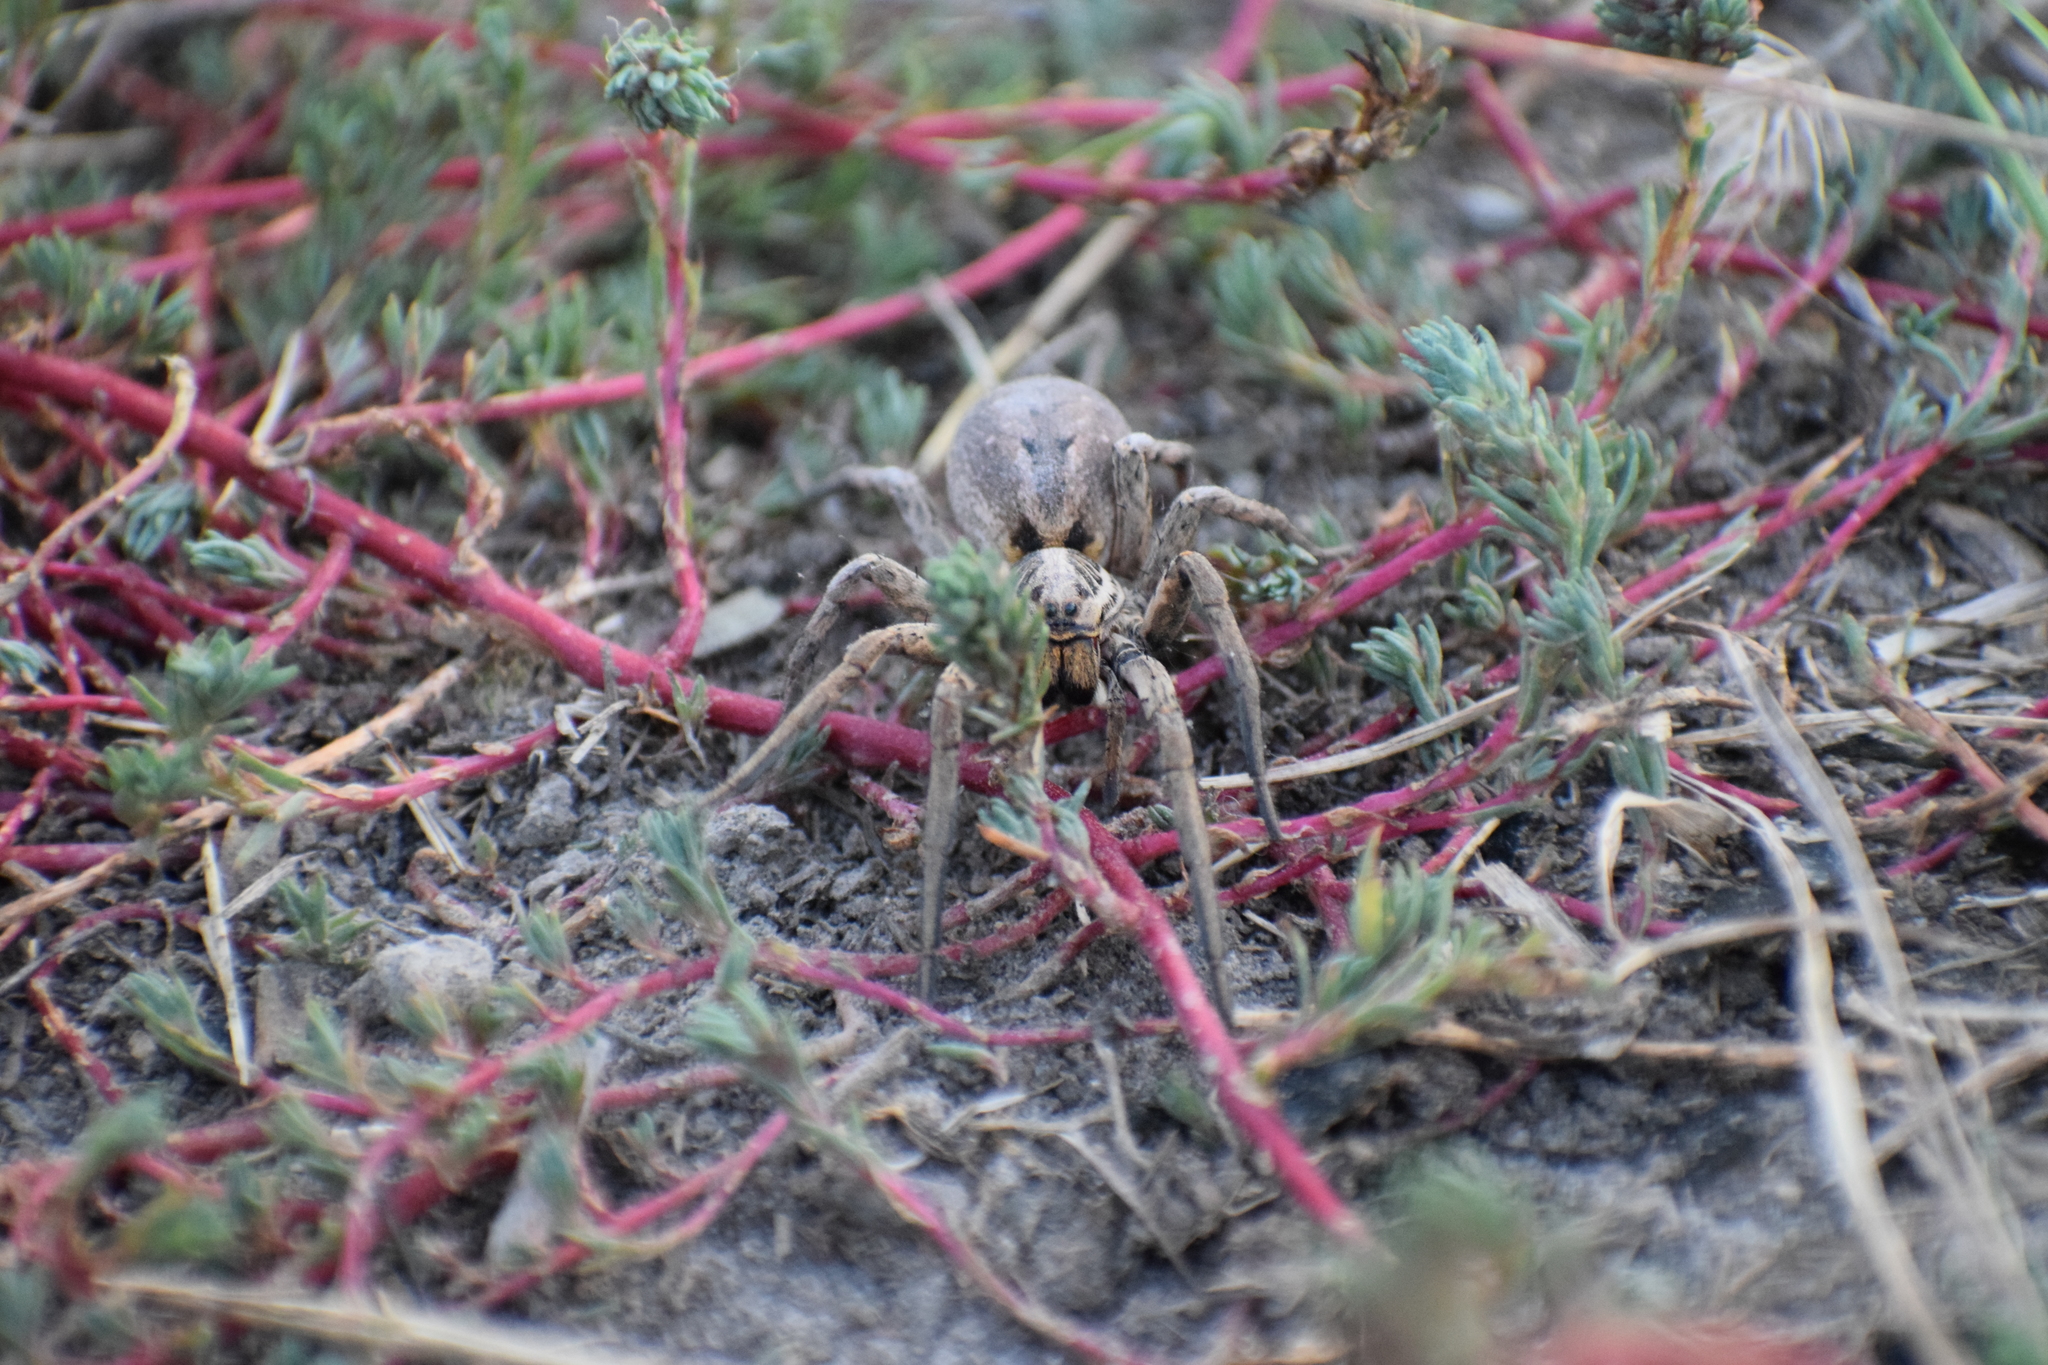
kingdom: Animalia
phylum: Arthropoda
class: Arachnida
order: Araneae
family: Lycosidae
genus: Hogna
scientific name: Hogna radiata
